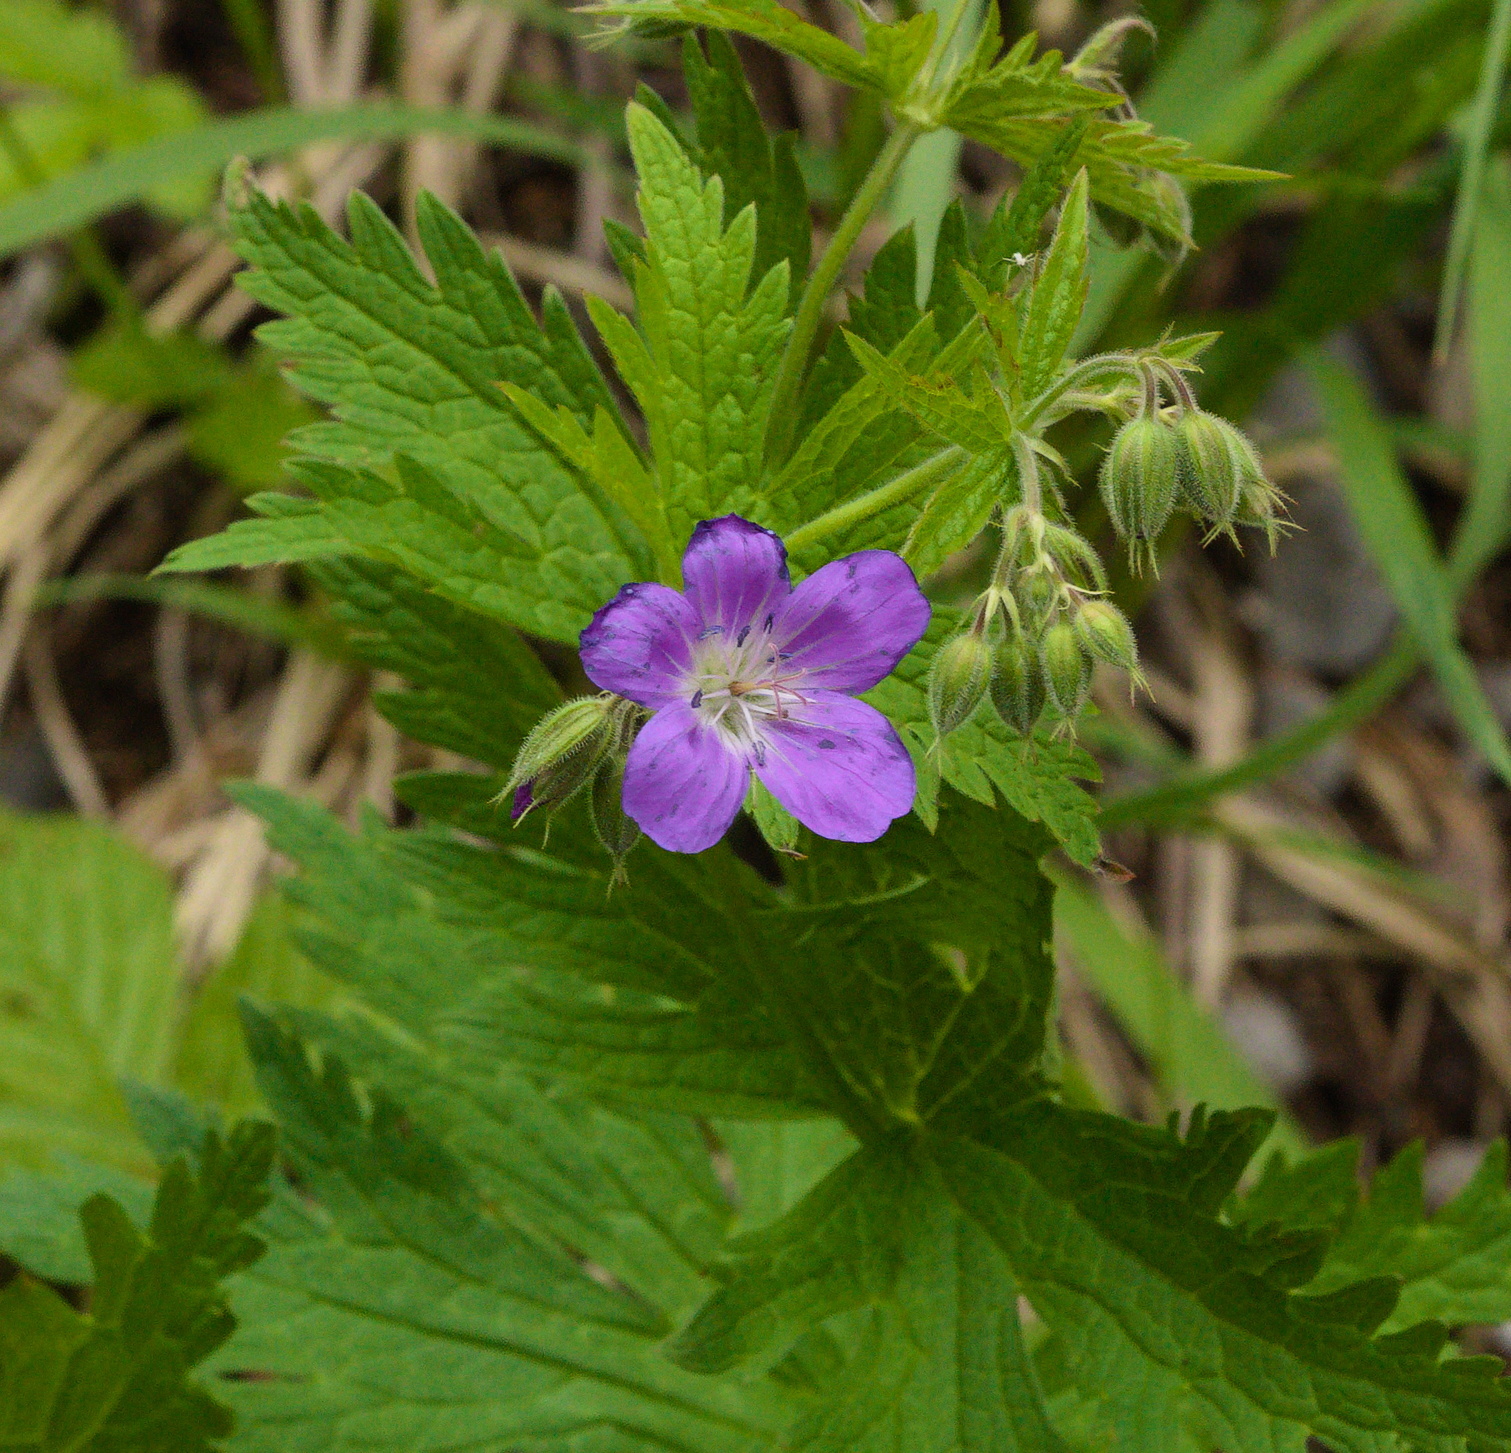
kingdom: Plantae
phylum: Tracheophyta
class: Magnoliopsida
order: Geraniales
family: Geraniaceae
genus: Geranium
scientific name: Geranium sylvaticum
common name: Wood crane's-bill
